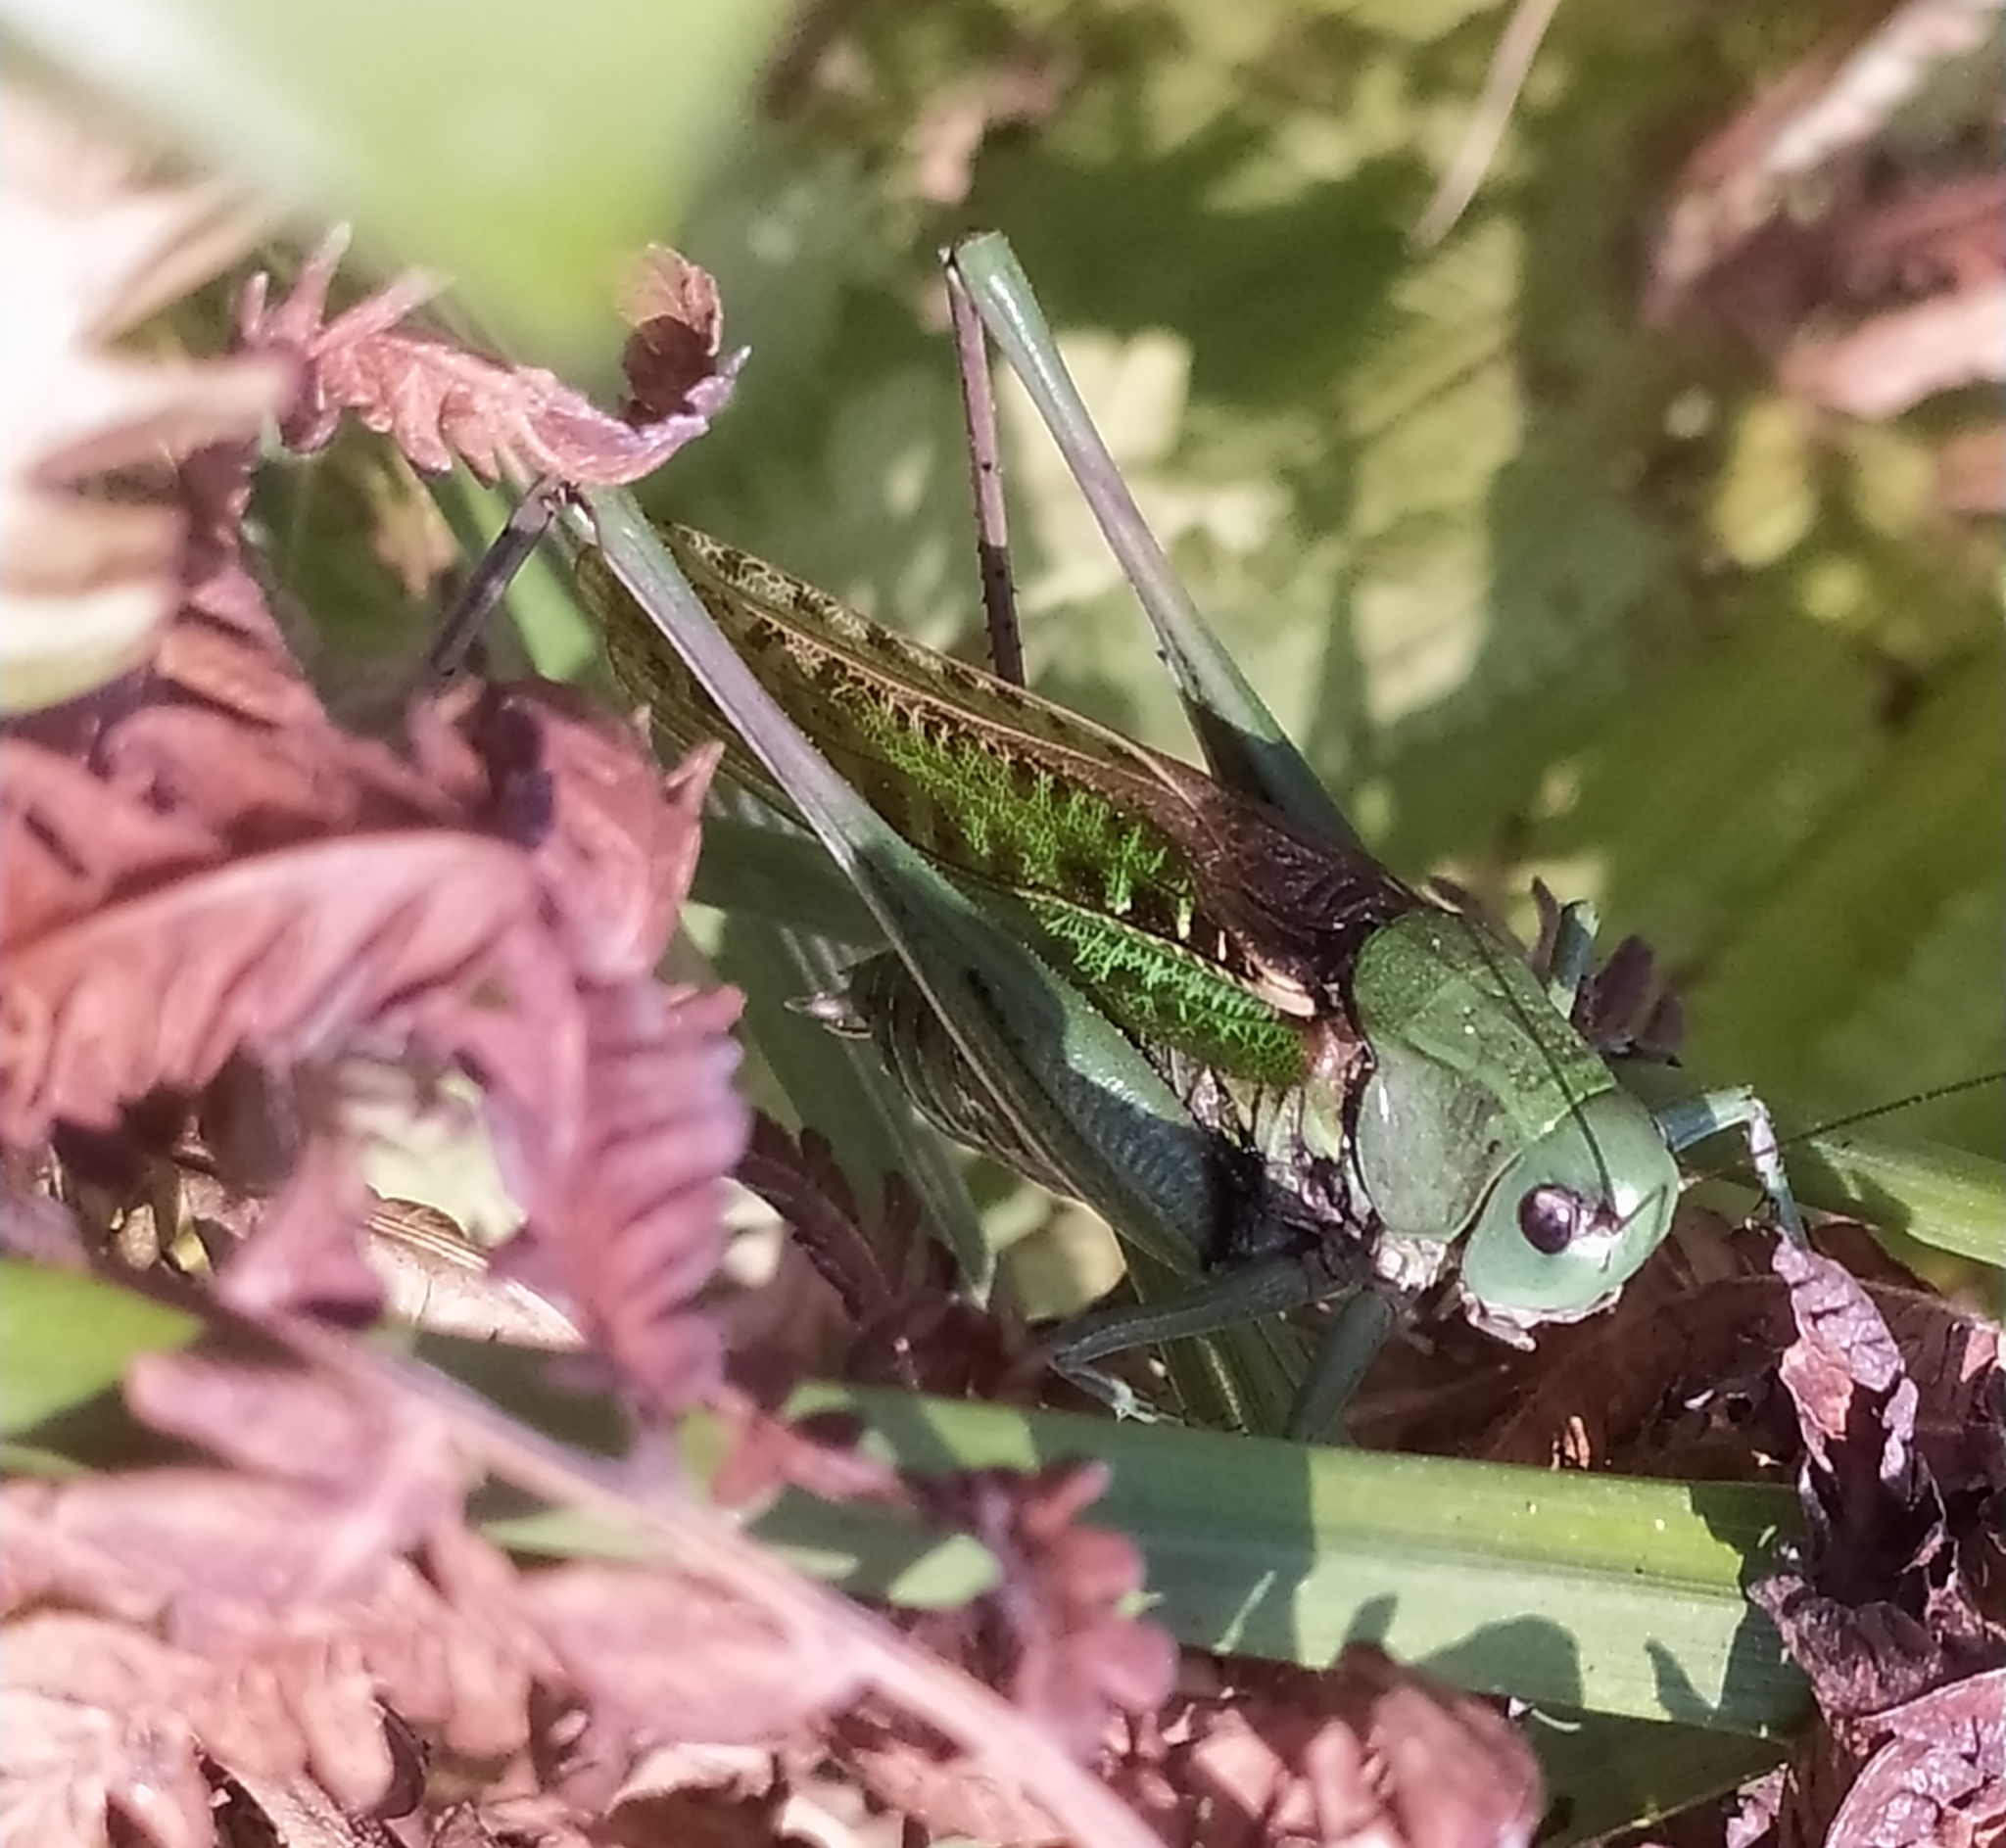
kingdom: Animalia
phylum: Arthropoda
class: Insecta
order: Orthoptera
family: Tettigoniidae
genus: Decticus
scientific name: Decticus verrucivorus
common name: Wart-biter
